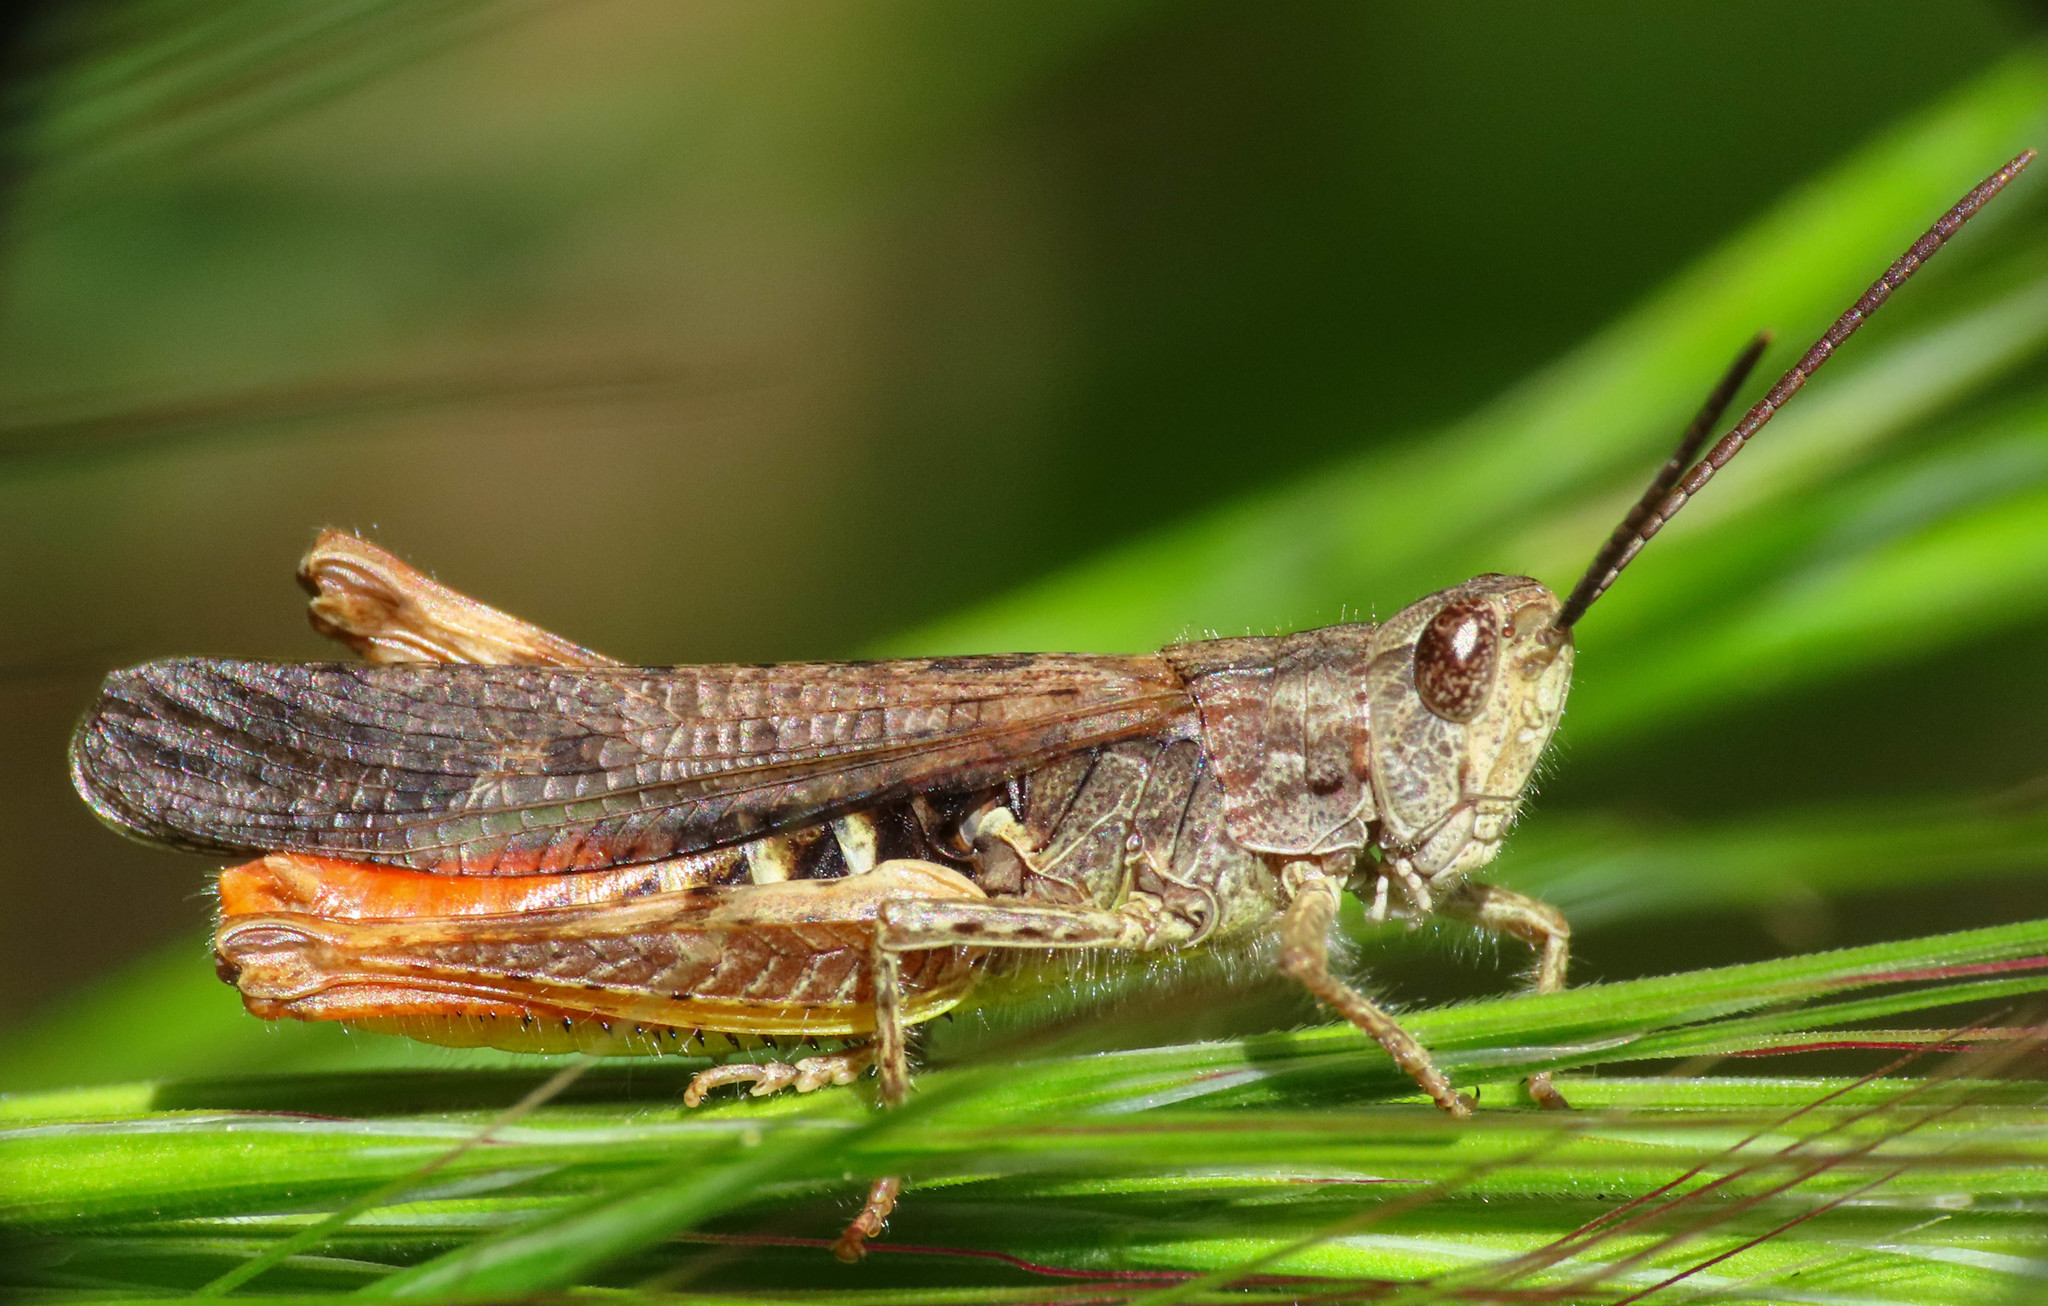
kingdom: Animalia
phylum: Arthropoda
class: Insecta
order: Orthoptera
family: Acrididae
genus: Chorthippus
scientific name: Chorthippus brunneus
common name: Field grasshopper
